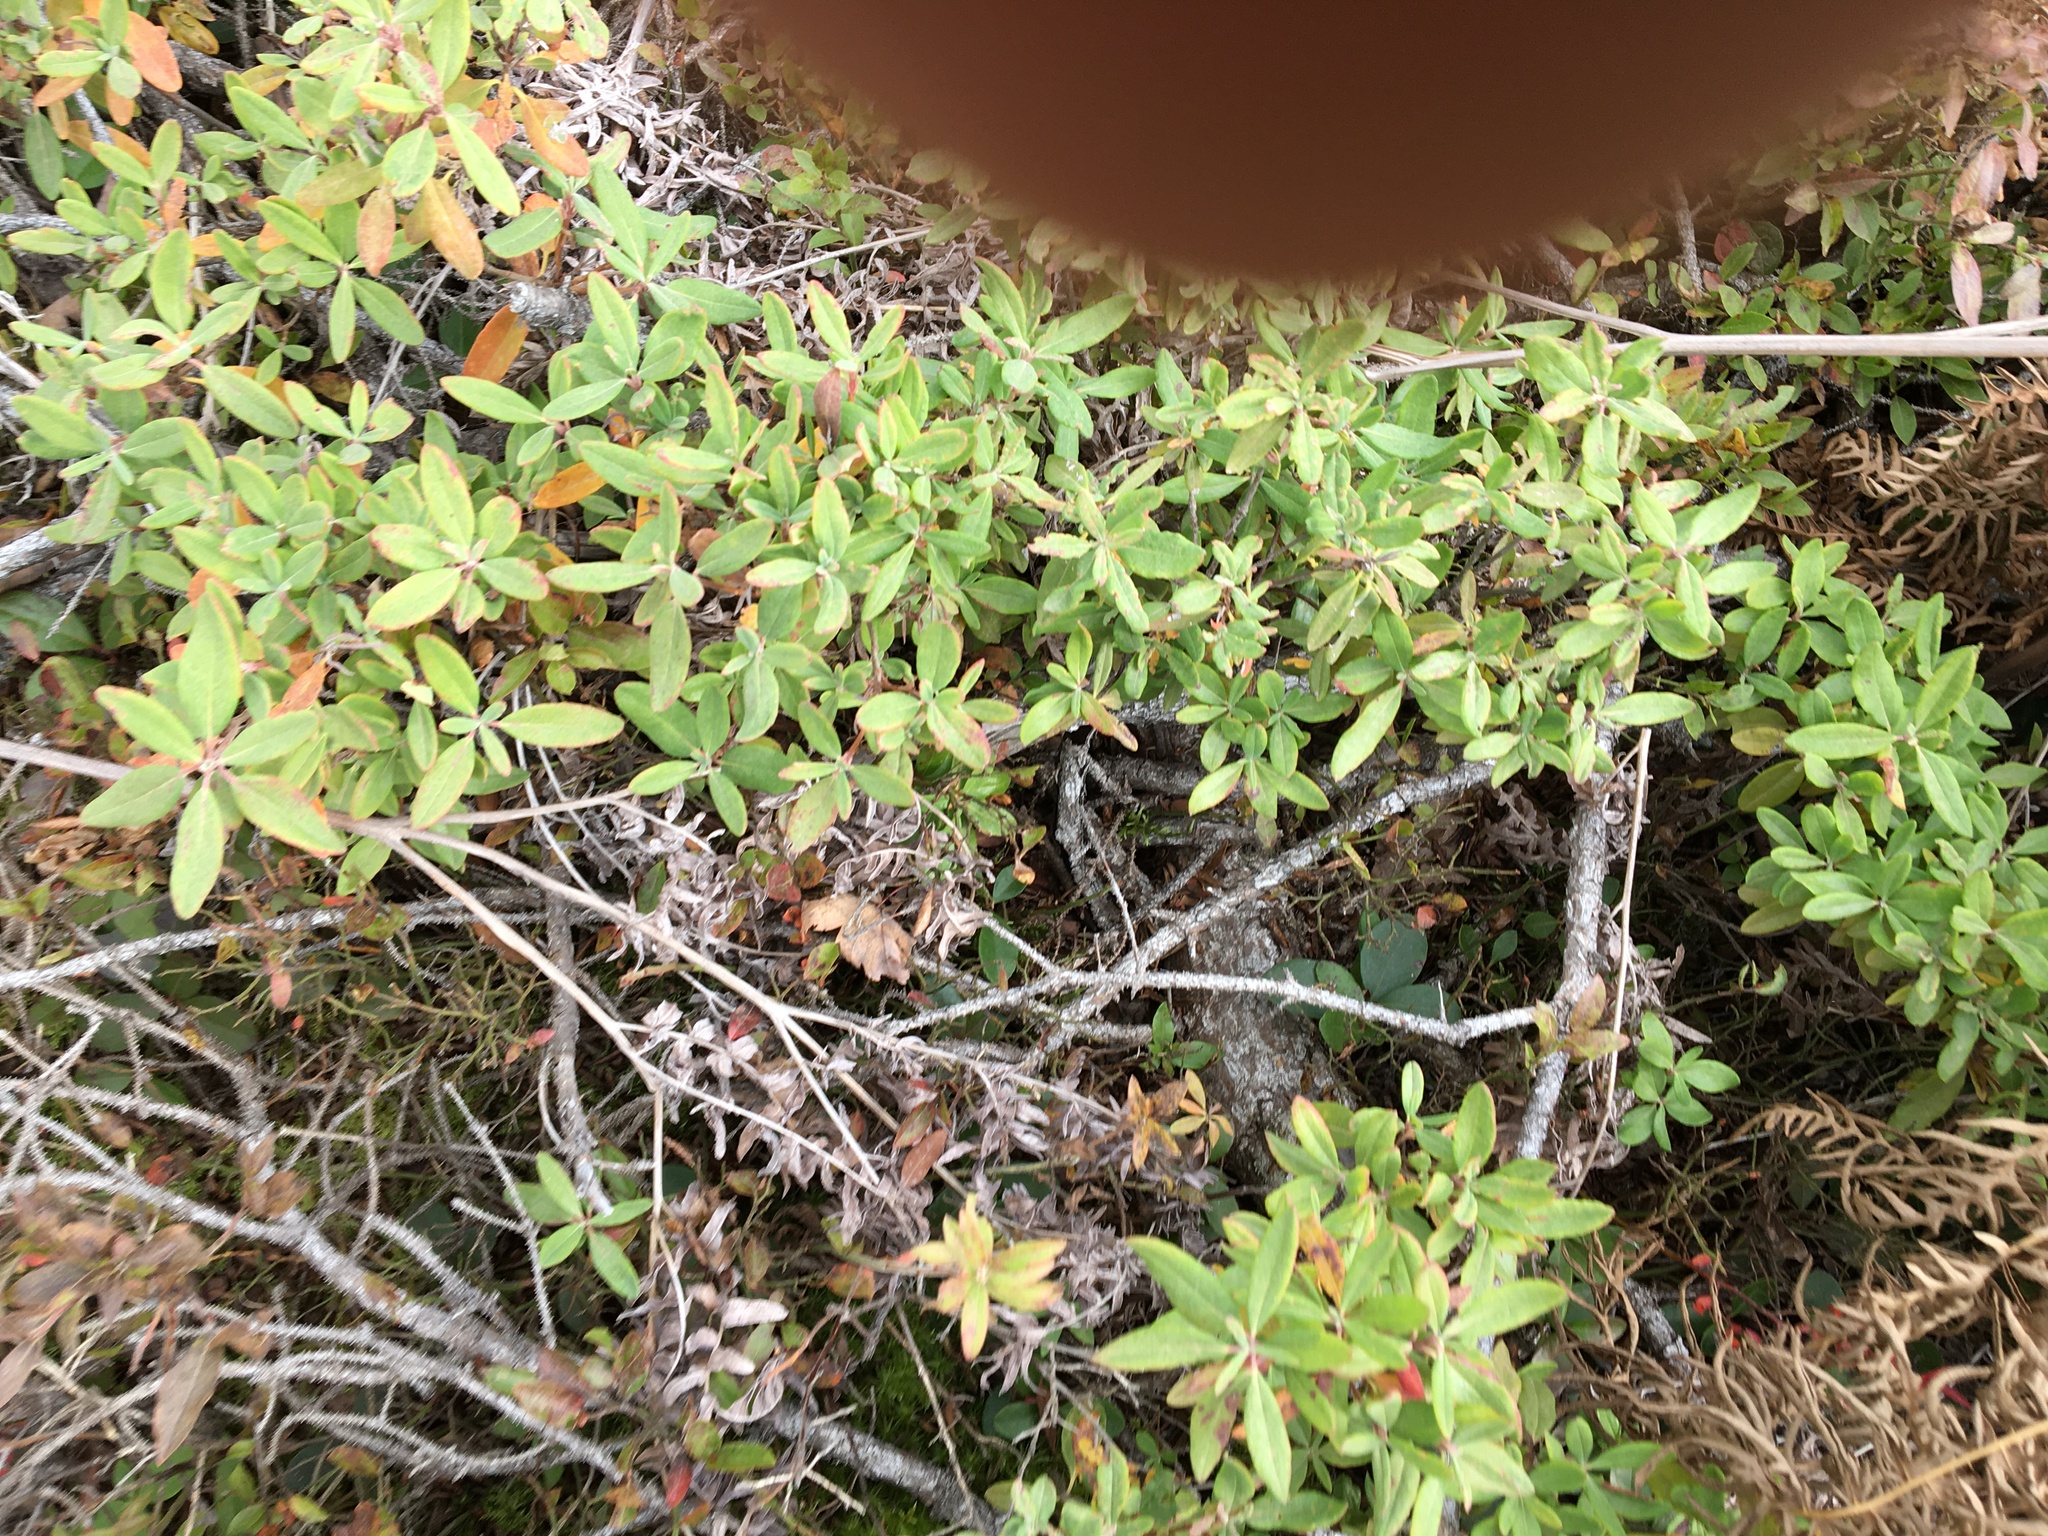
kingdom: Plantae
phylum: Tracheophyta
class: Magnoliopsida
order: Ericales
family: Ericaceae
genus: Kalmia
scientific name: Kalmia angustifolia
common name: Sheep-laurel
